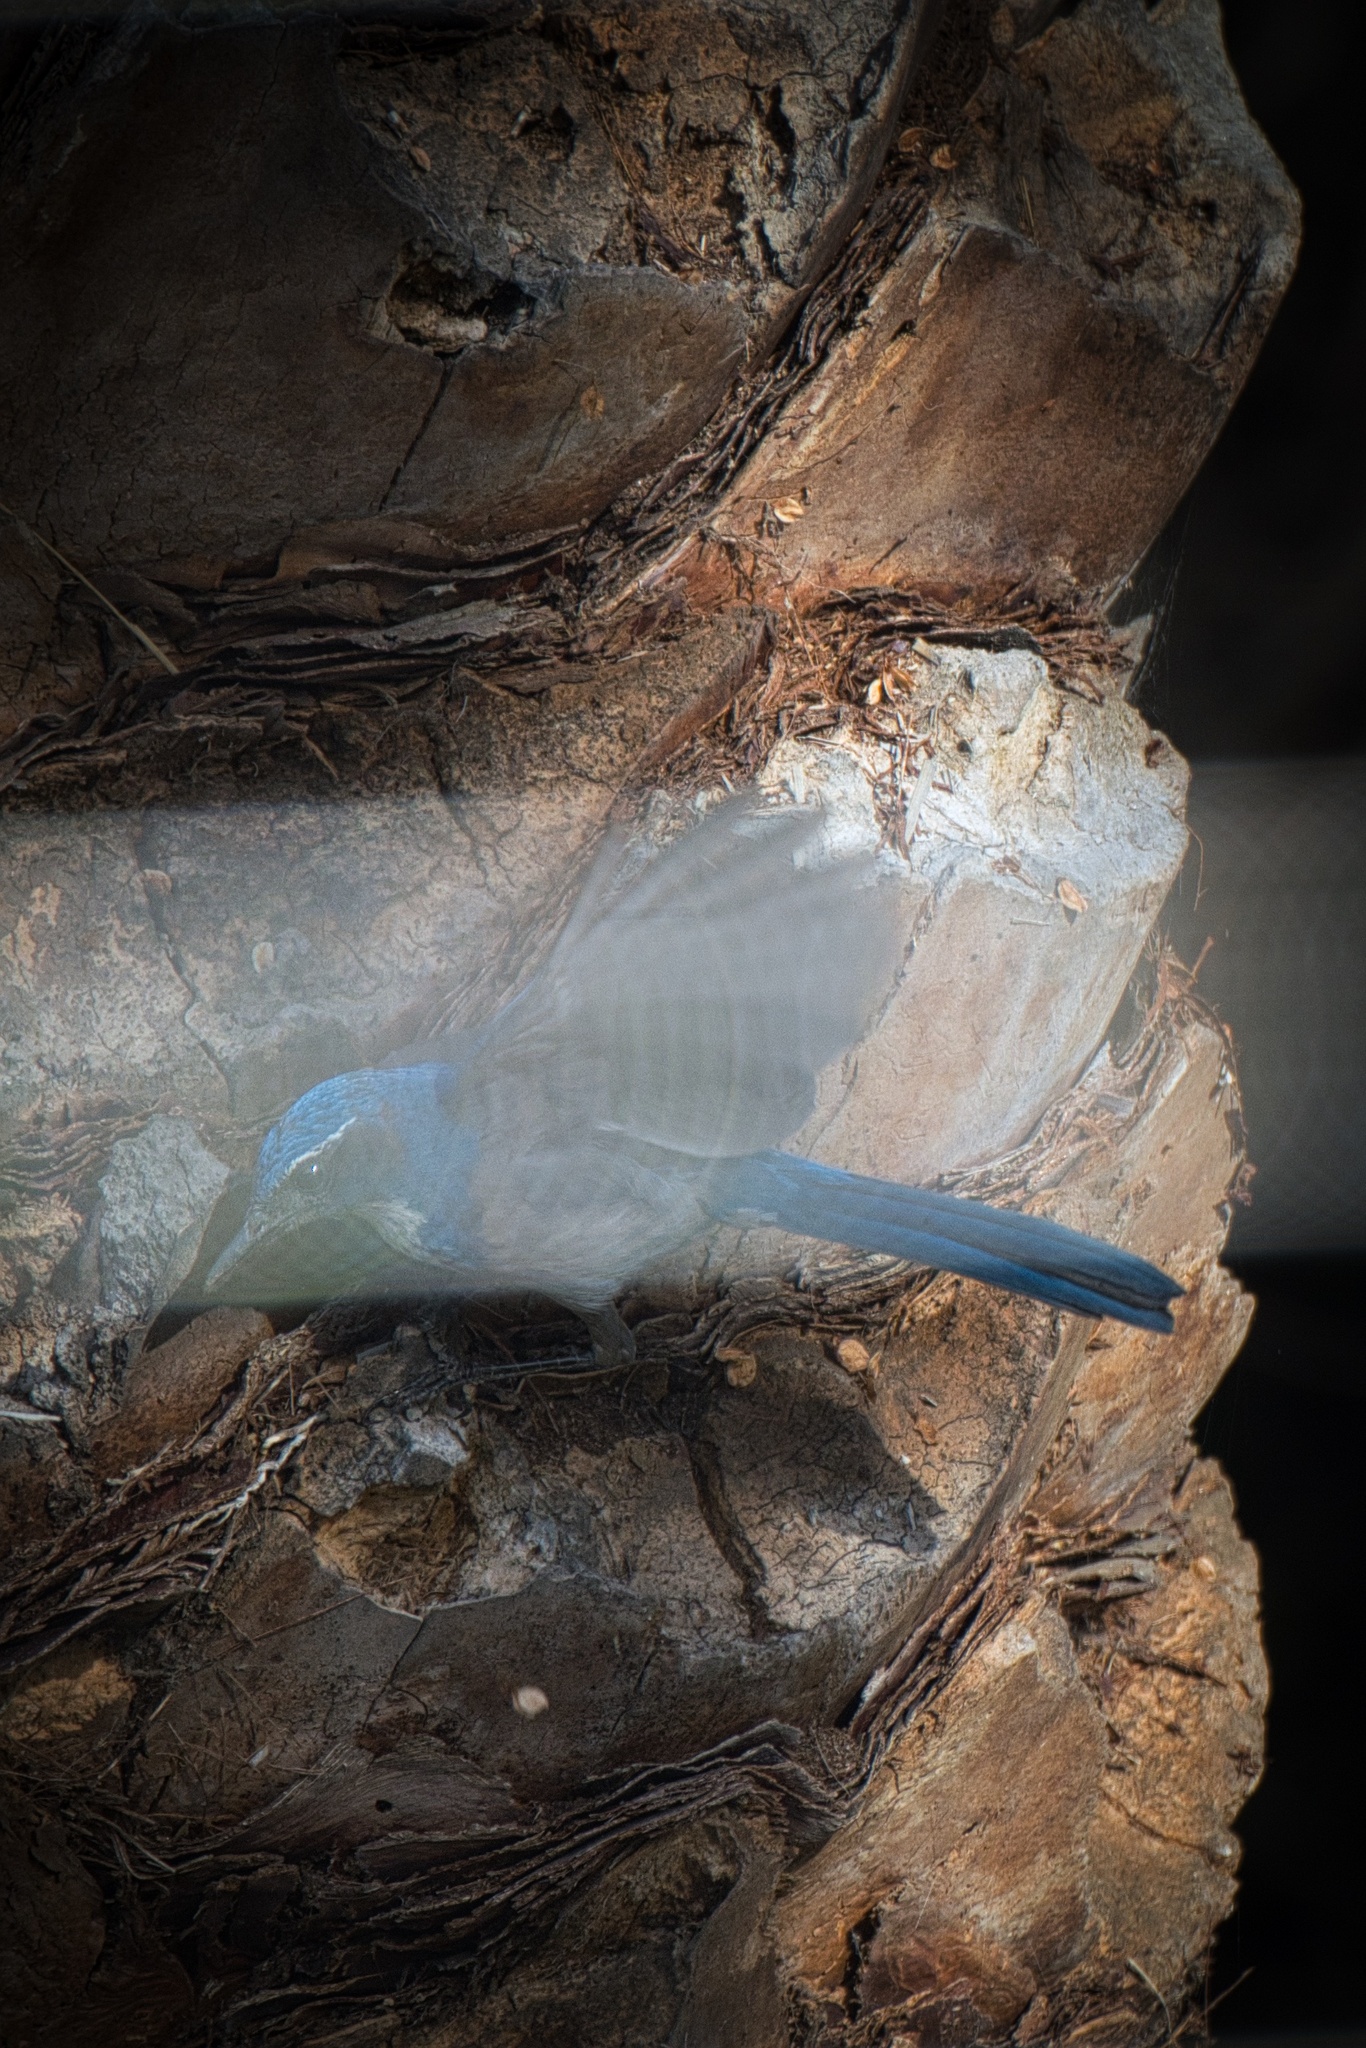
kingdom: Animalia
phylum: Chordata
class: Aves
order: Passeriformes
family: Corvidae
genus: Aphelocoma
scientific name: Aphelocoma californica
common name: California scrub-jay
